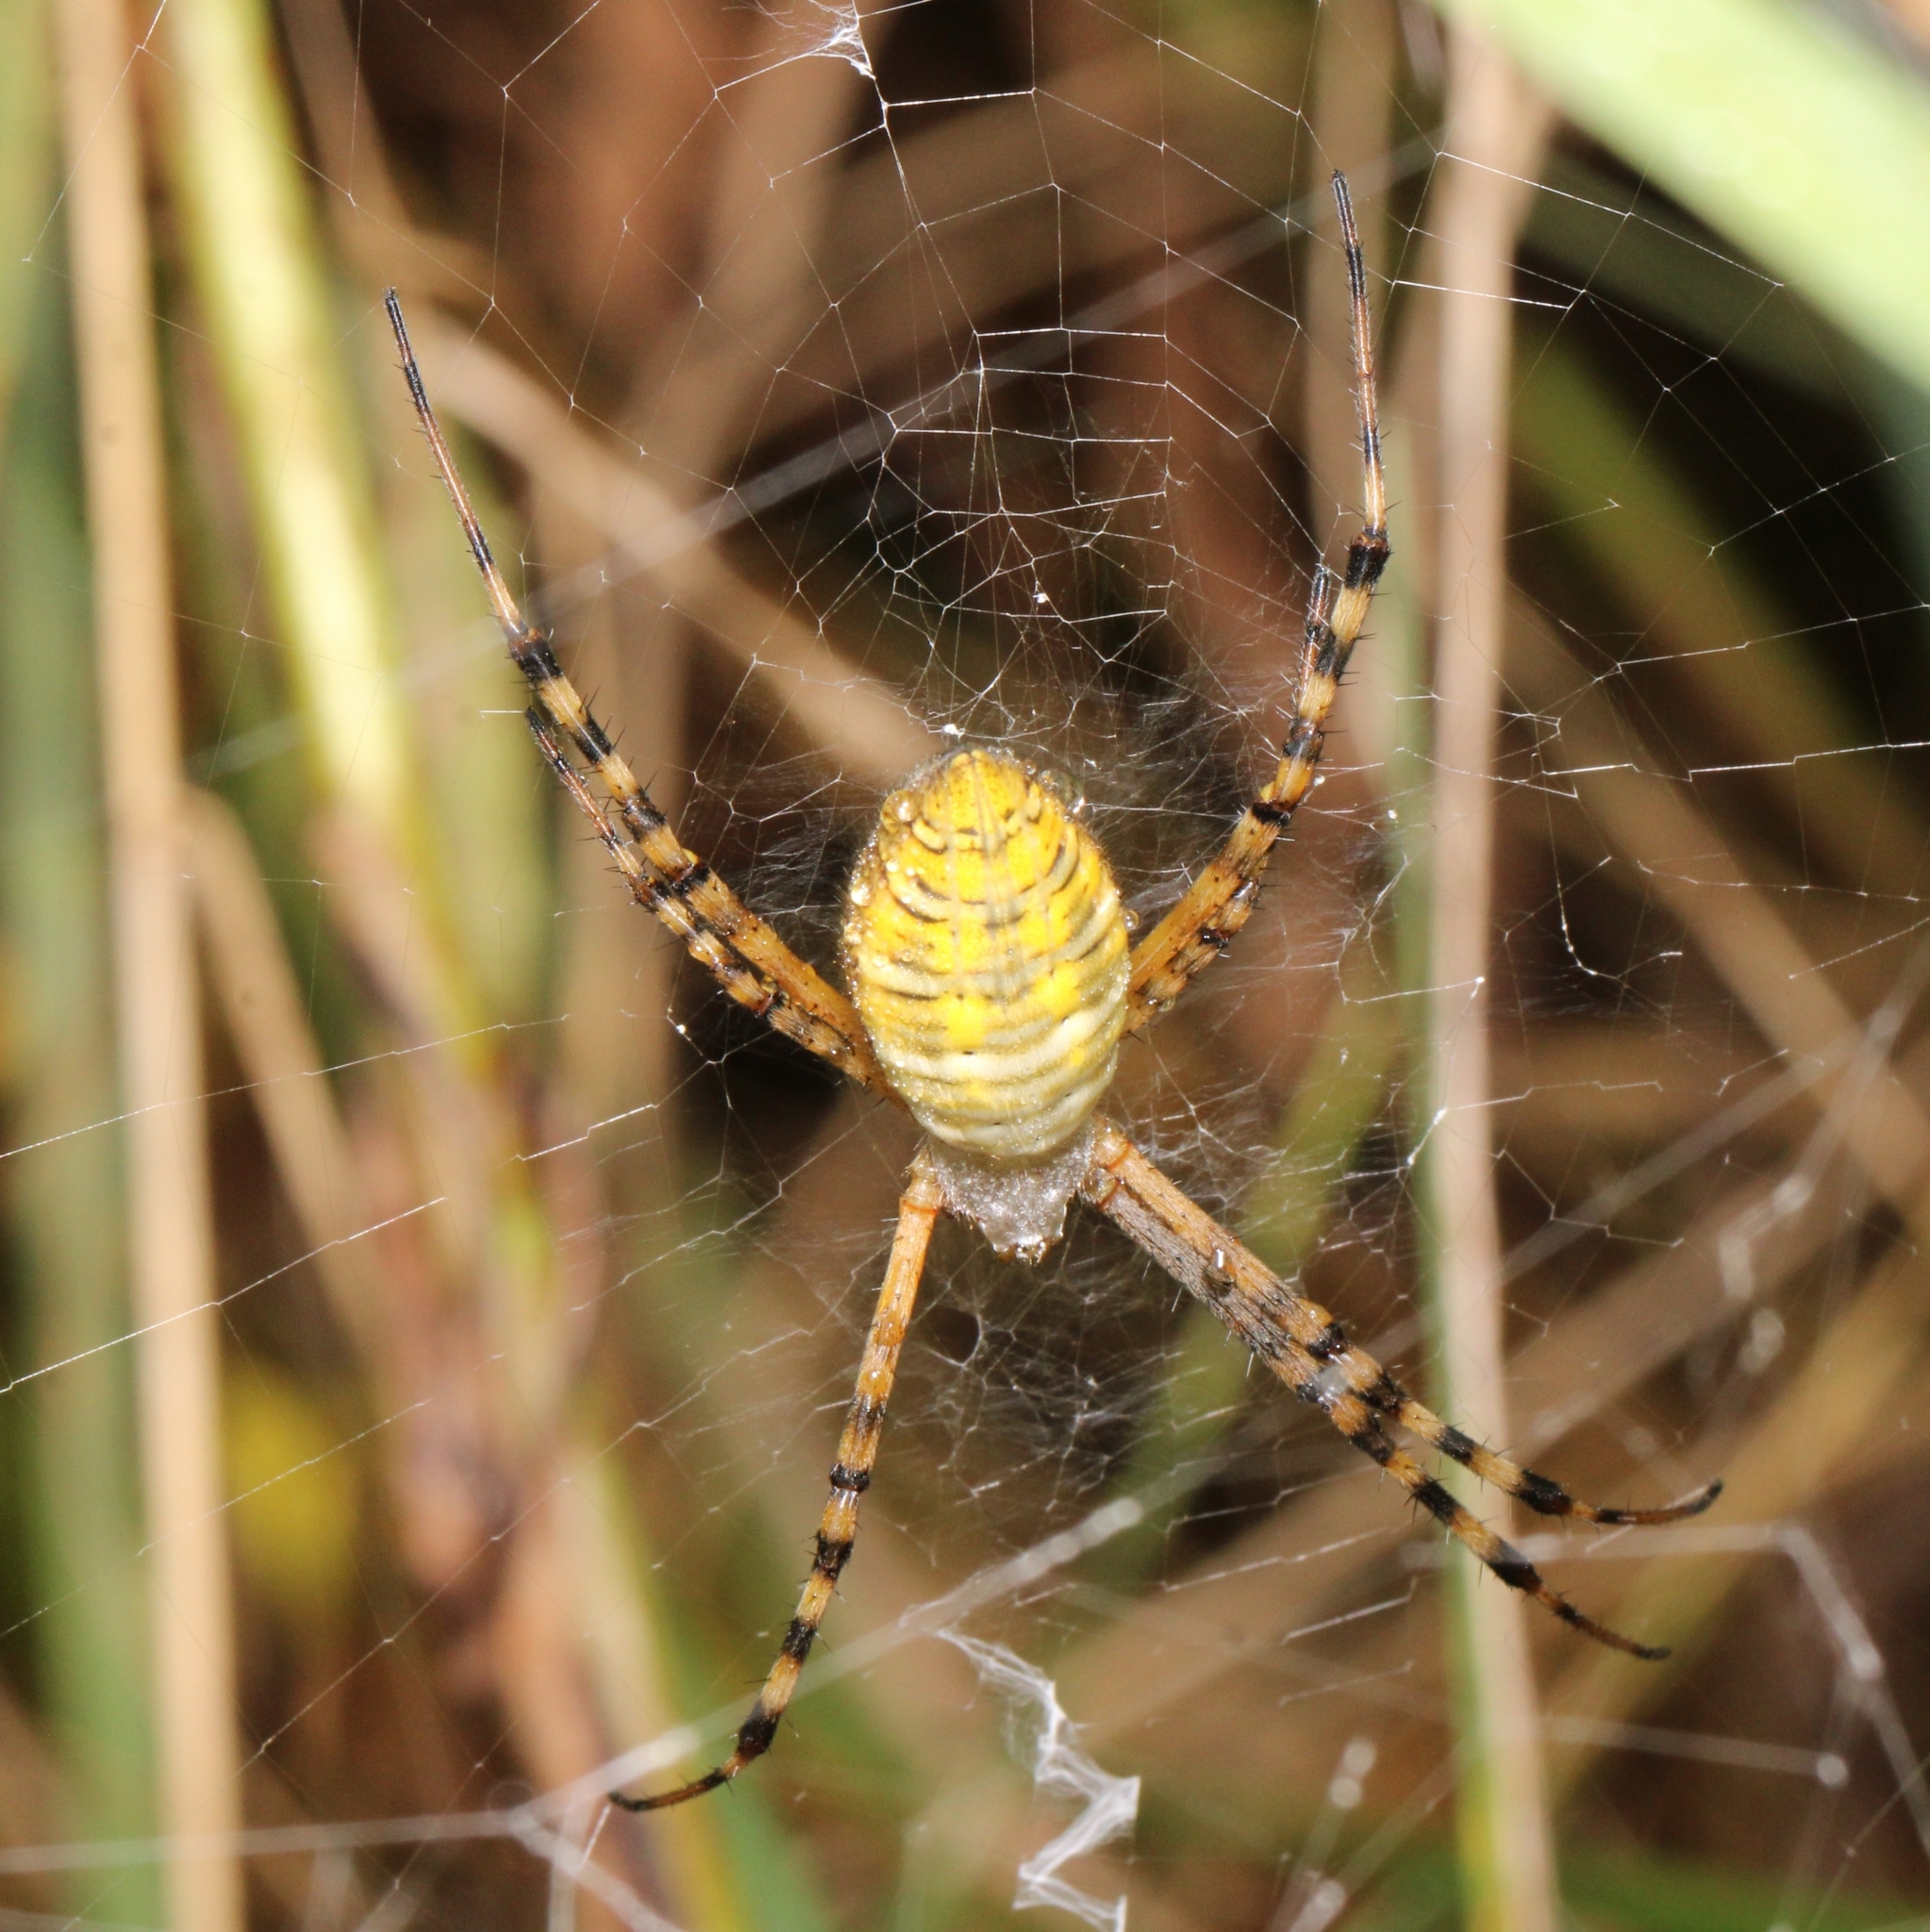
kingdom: Animalia
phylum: Arthropoda
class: Arachnida
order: Araneae
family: Araneidae
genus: Argiope
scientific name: Argiope trifasciata
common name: Banded garden spider
